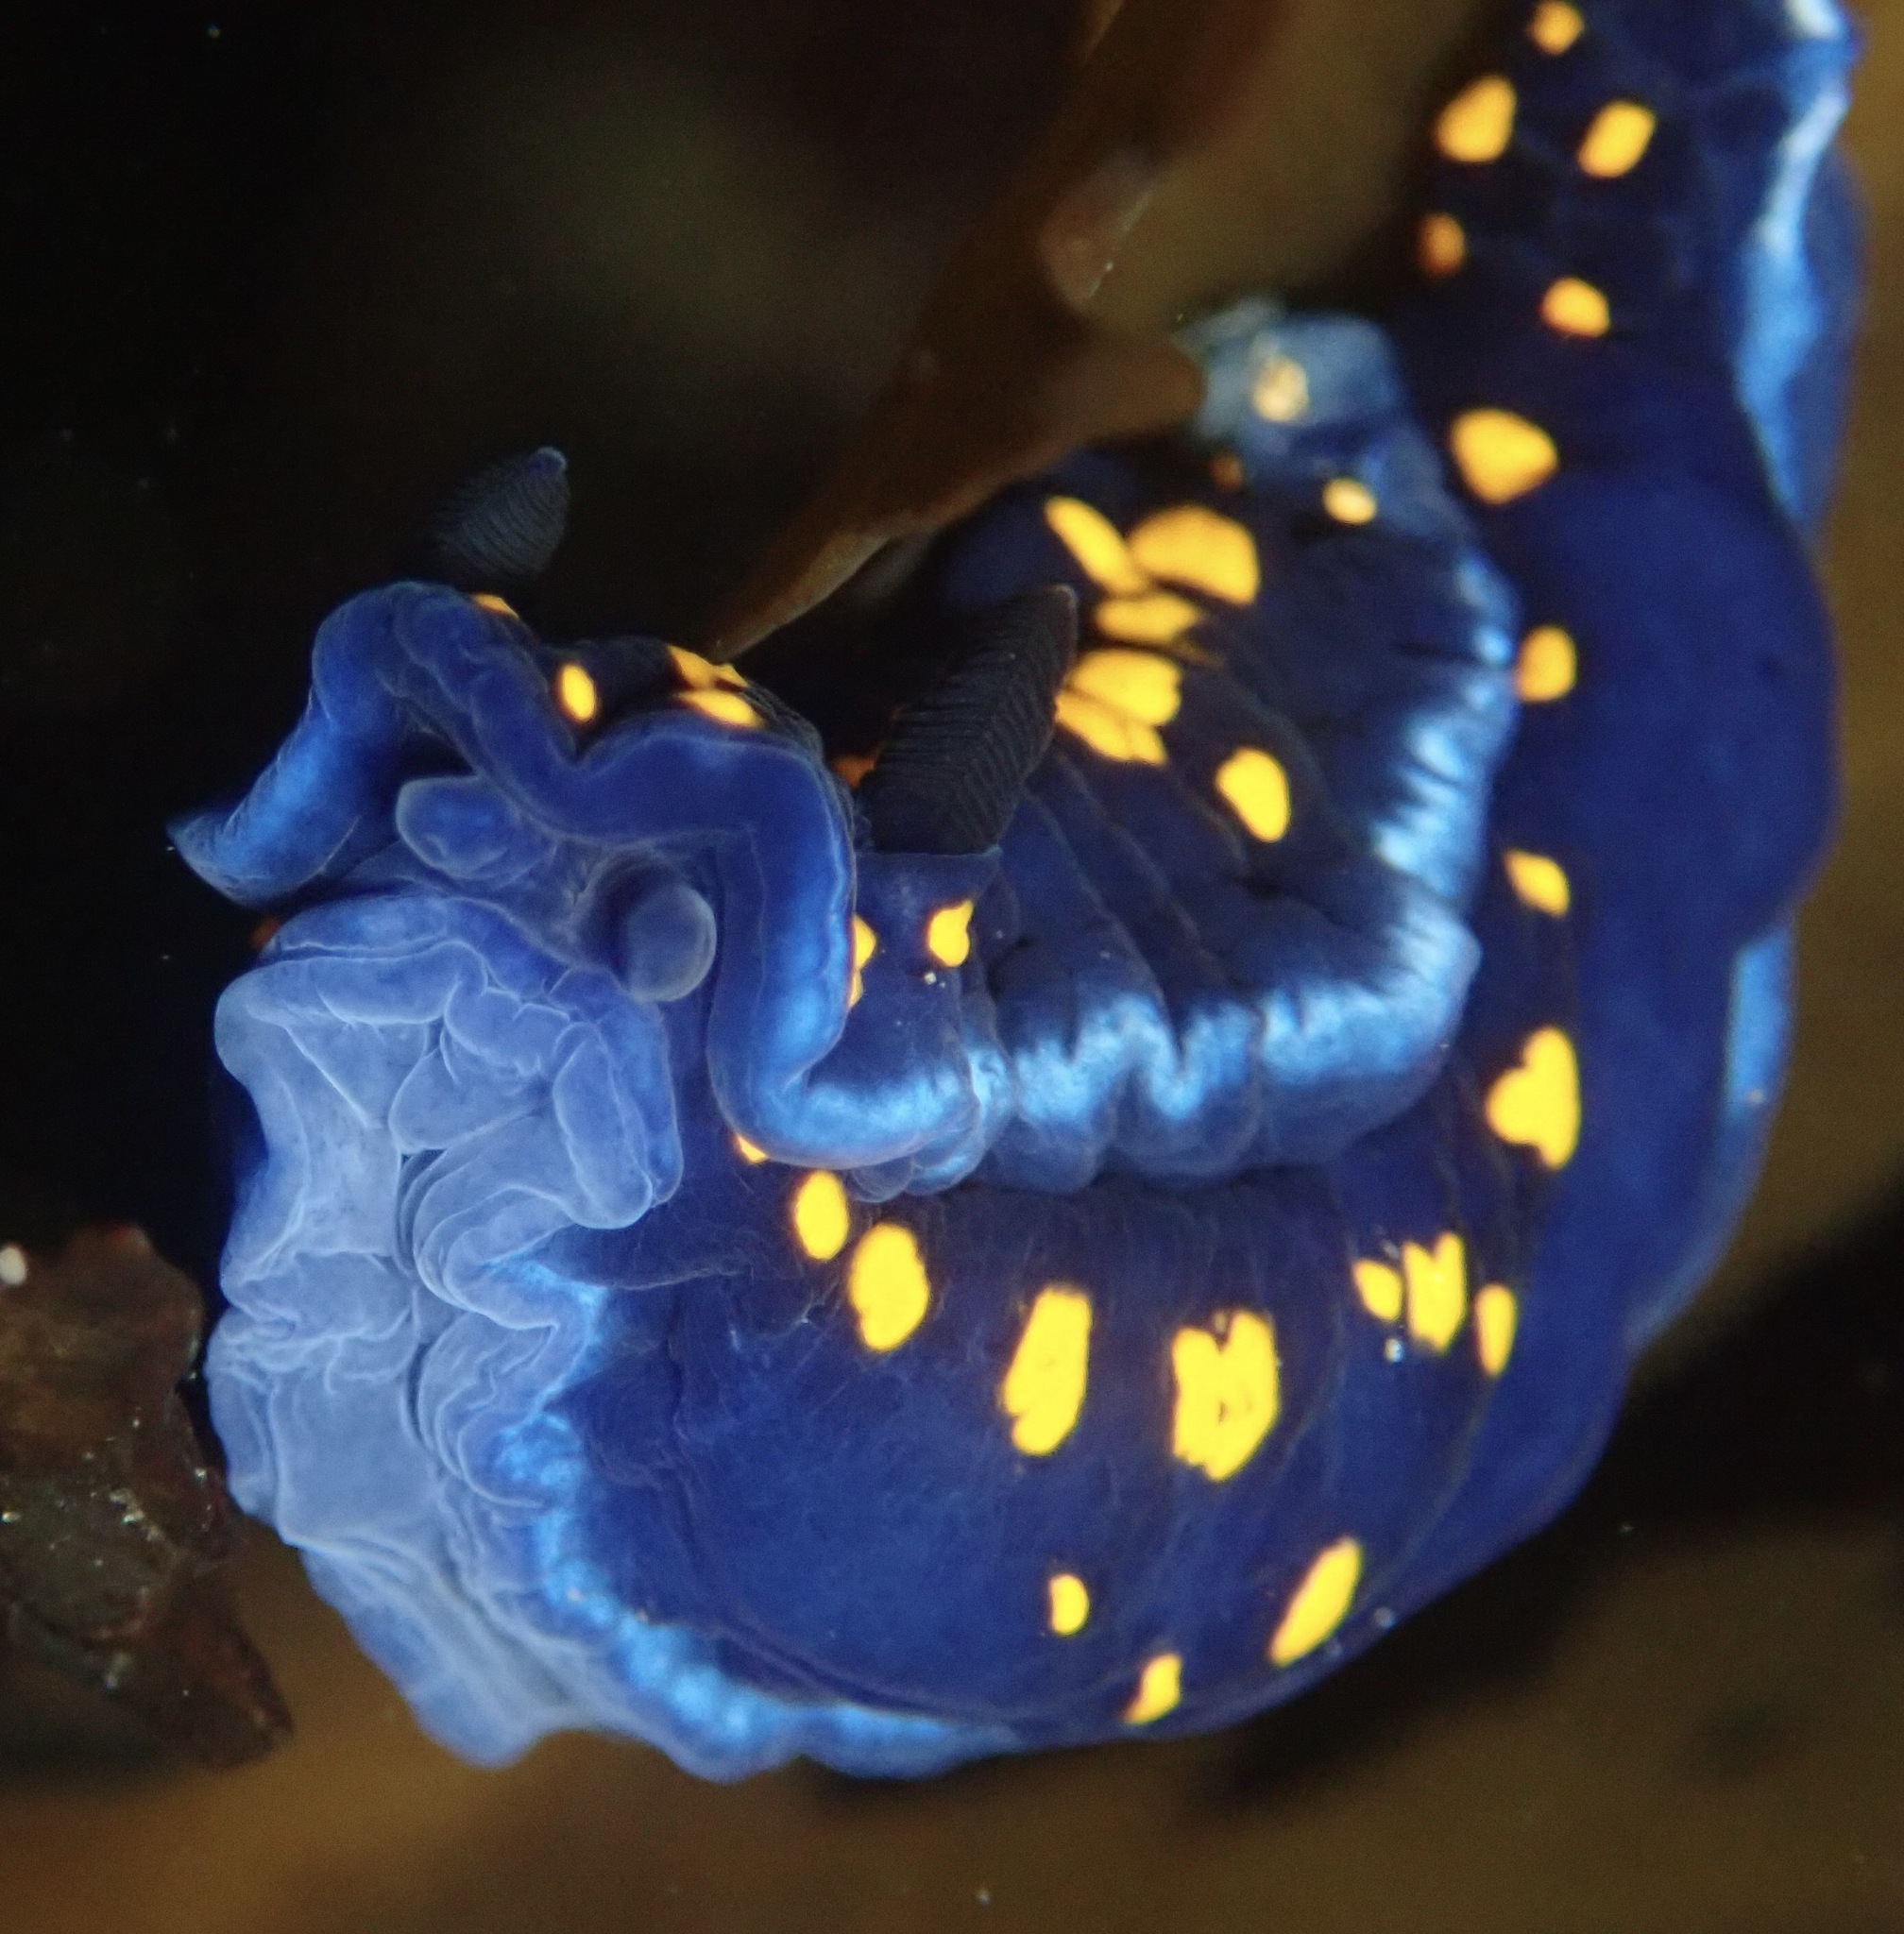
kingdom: Animalia
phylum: Mollusca
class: Gastropoda
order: Nudibranchia
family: Chromodorididae
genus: Felimare
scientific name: Felimare californiensis
